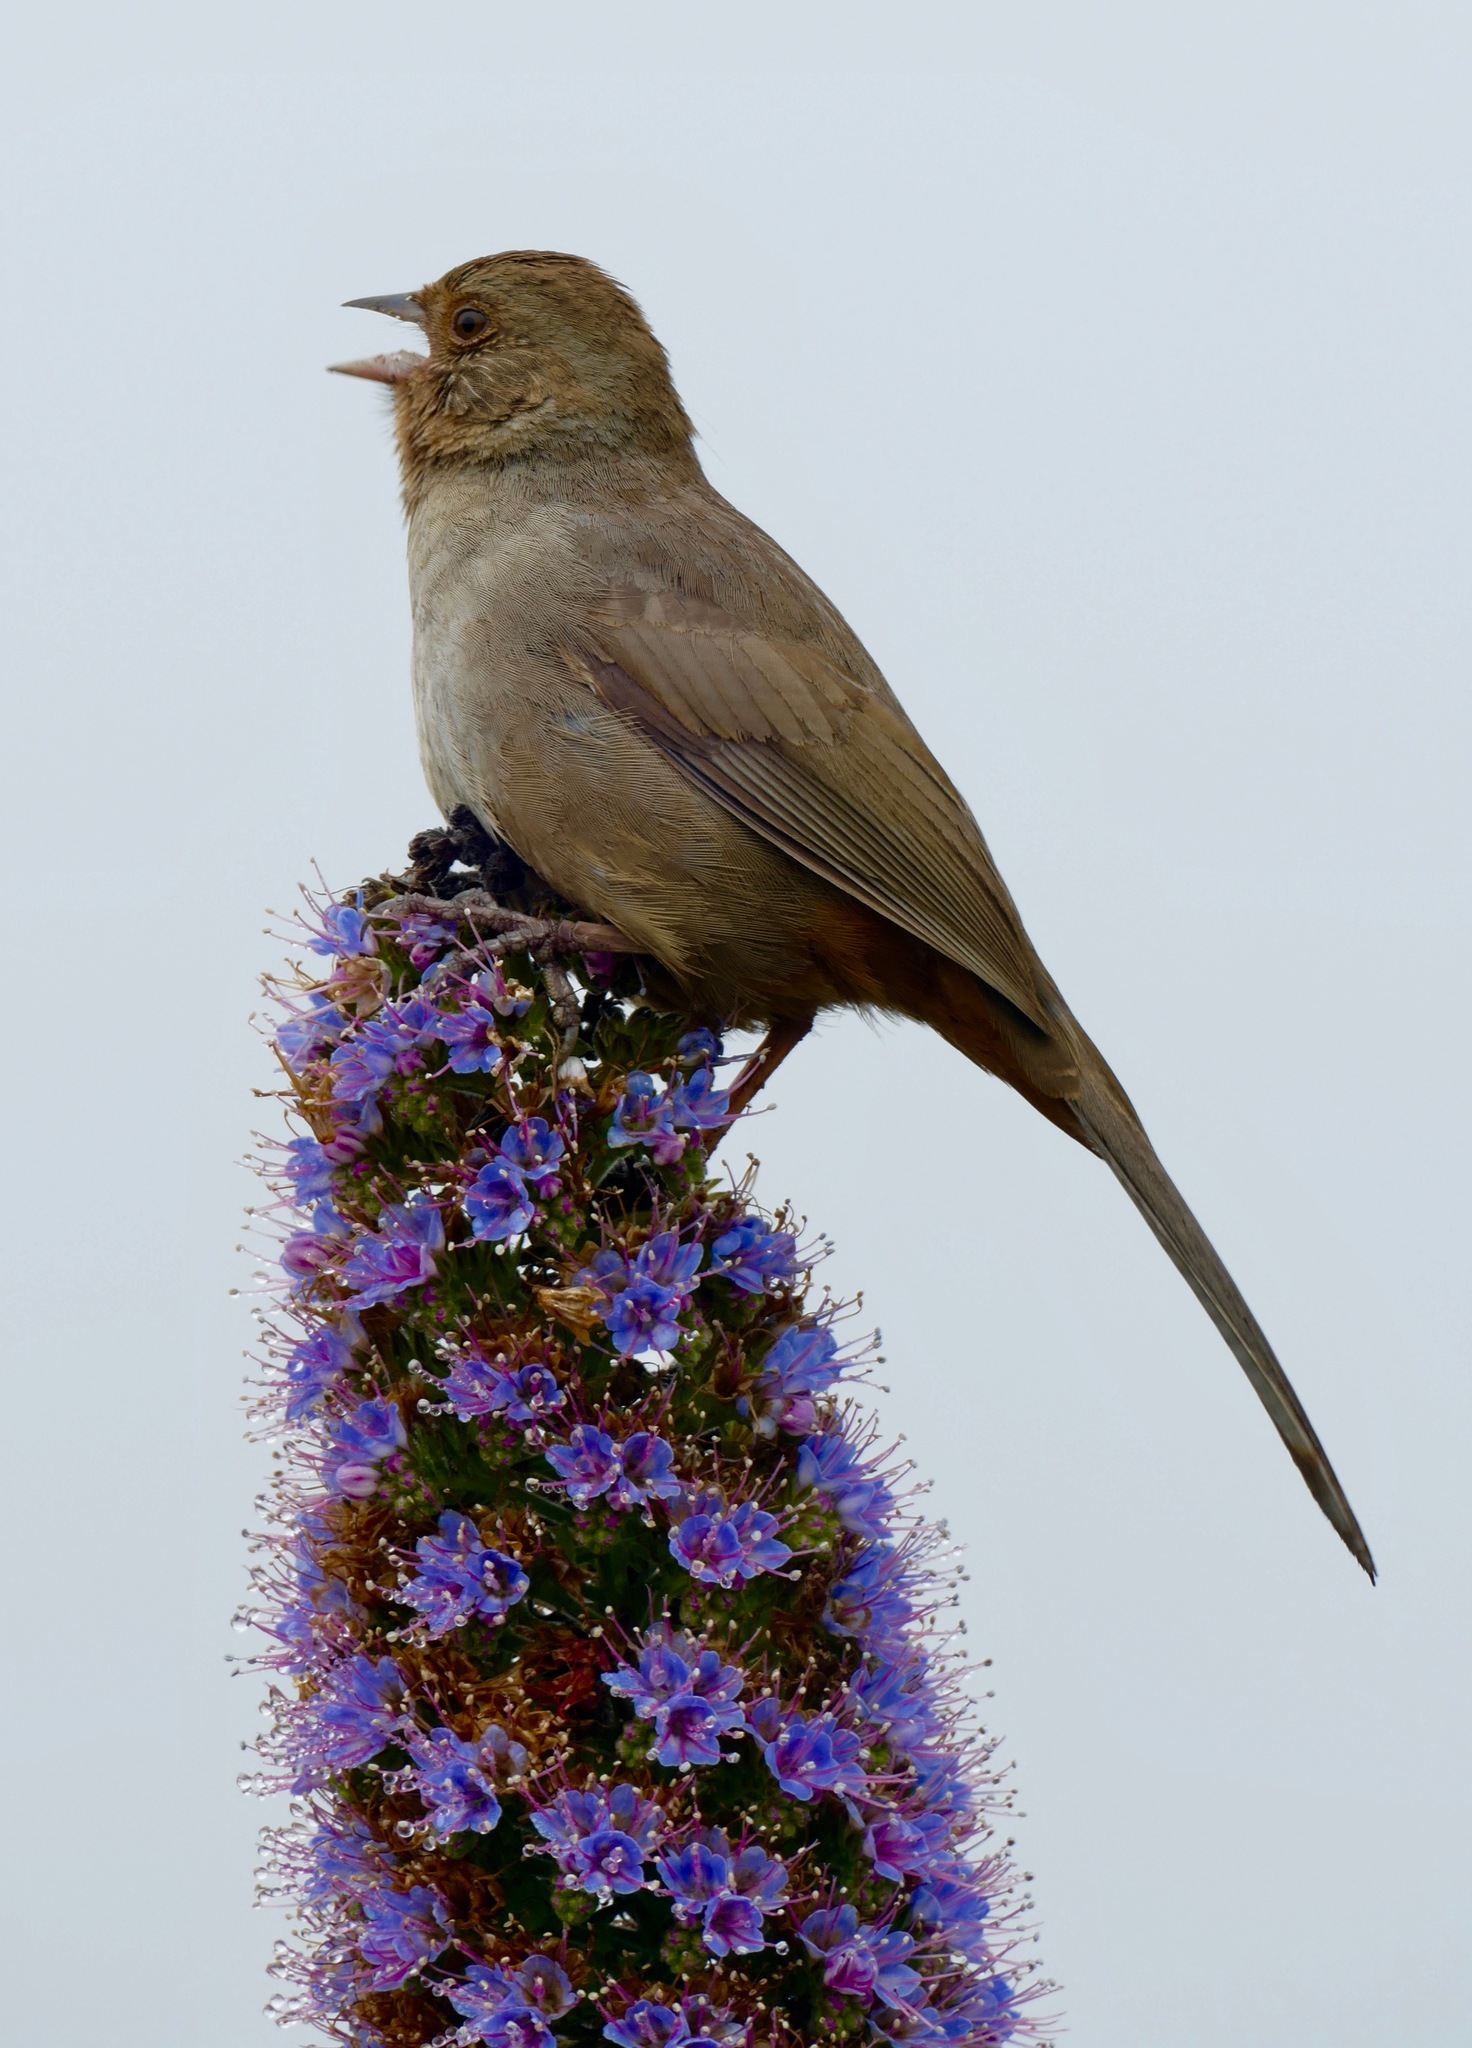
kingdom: Animalia
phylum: Chordata
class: Aves
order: Passeriformes
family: Passerellidae
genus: Melozone
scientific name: Melozone crissalis
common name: California towhee
